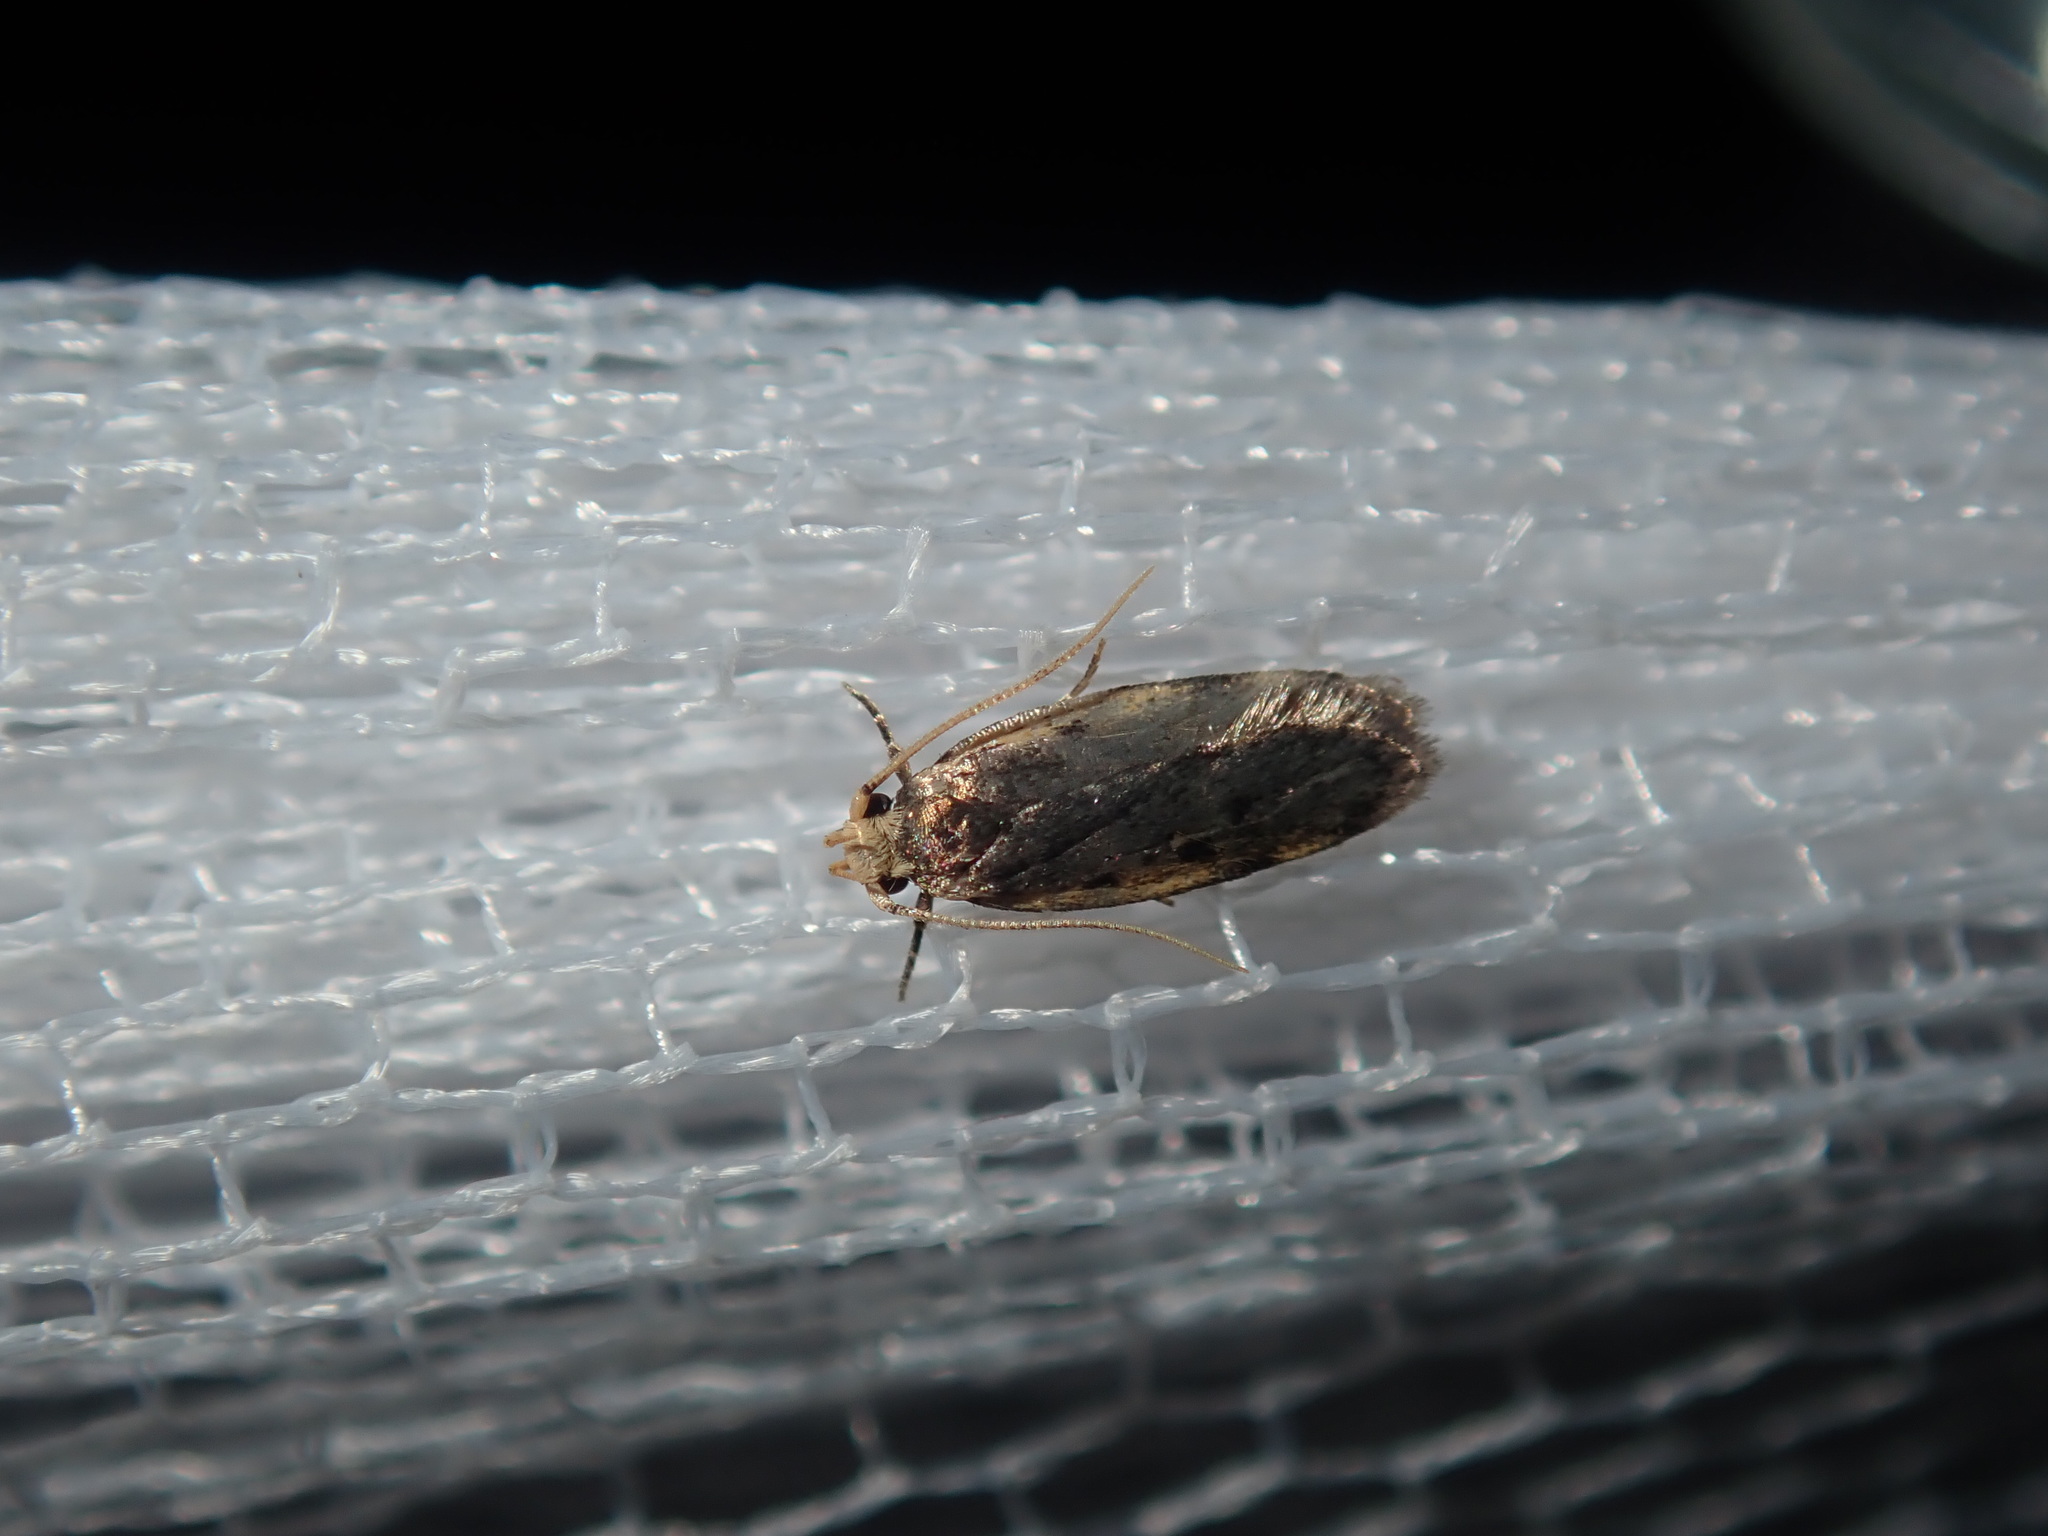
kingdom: Animalia
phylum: Arthropoda
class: Insecta
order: Lepidoptera
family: Oecophoridae
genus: Hoplostega
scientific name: Hoplostega ochroma
